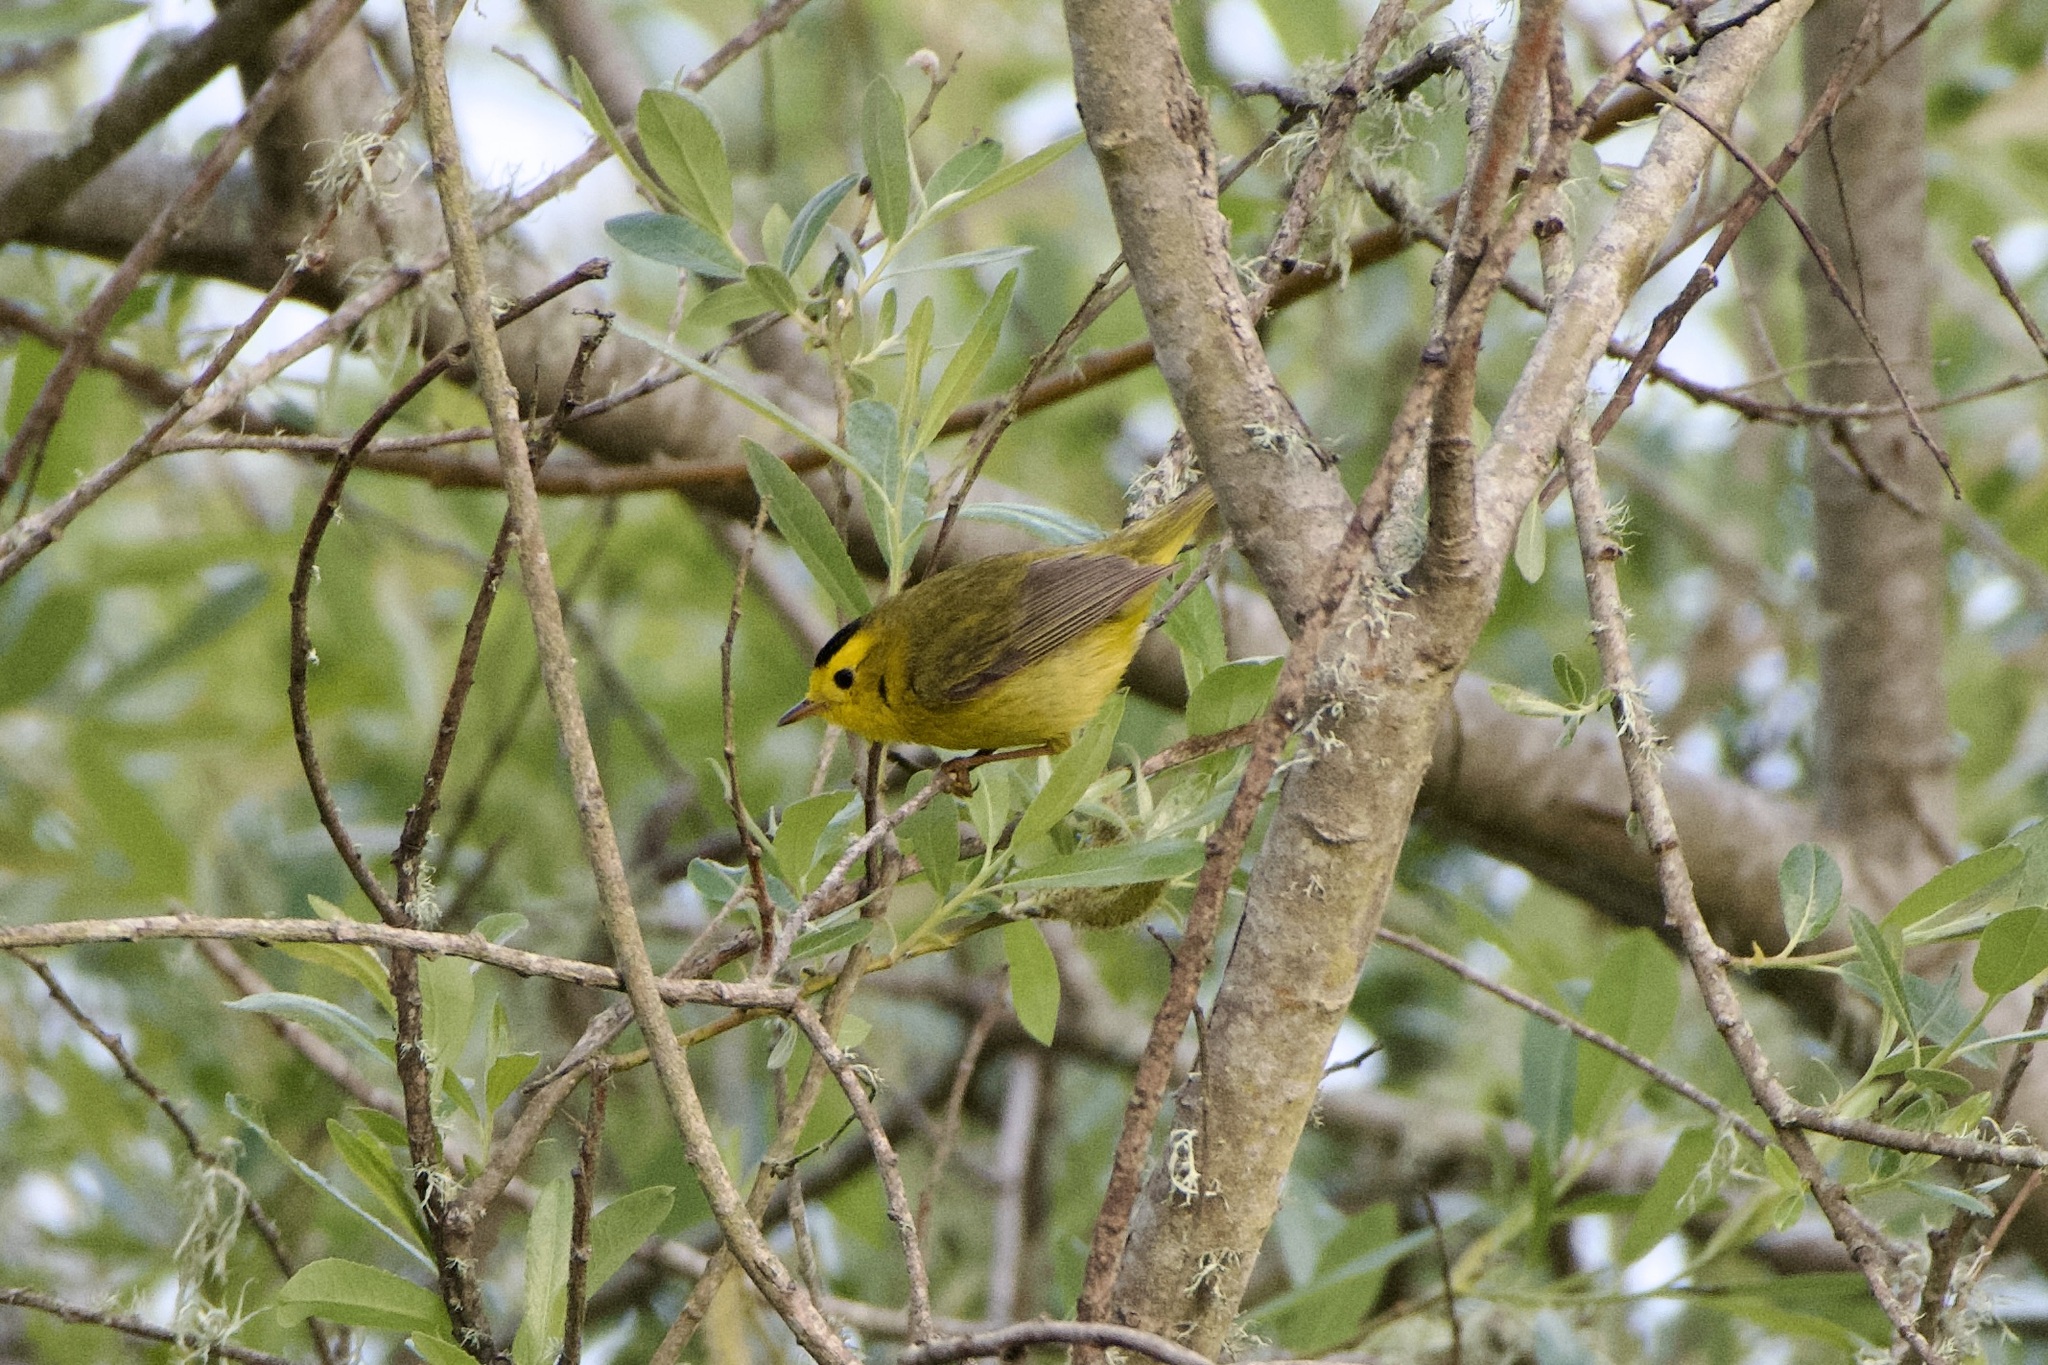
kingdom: Animalia
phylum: Chordata
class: Aves
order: Passeriformes
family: Parulidae
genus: Cardellina
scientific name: Cardellina pusilla
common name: Wilson's warbler
